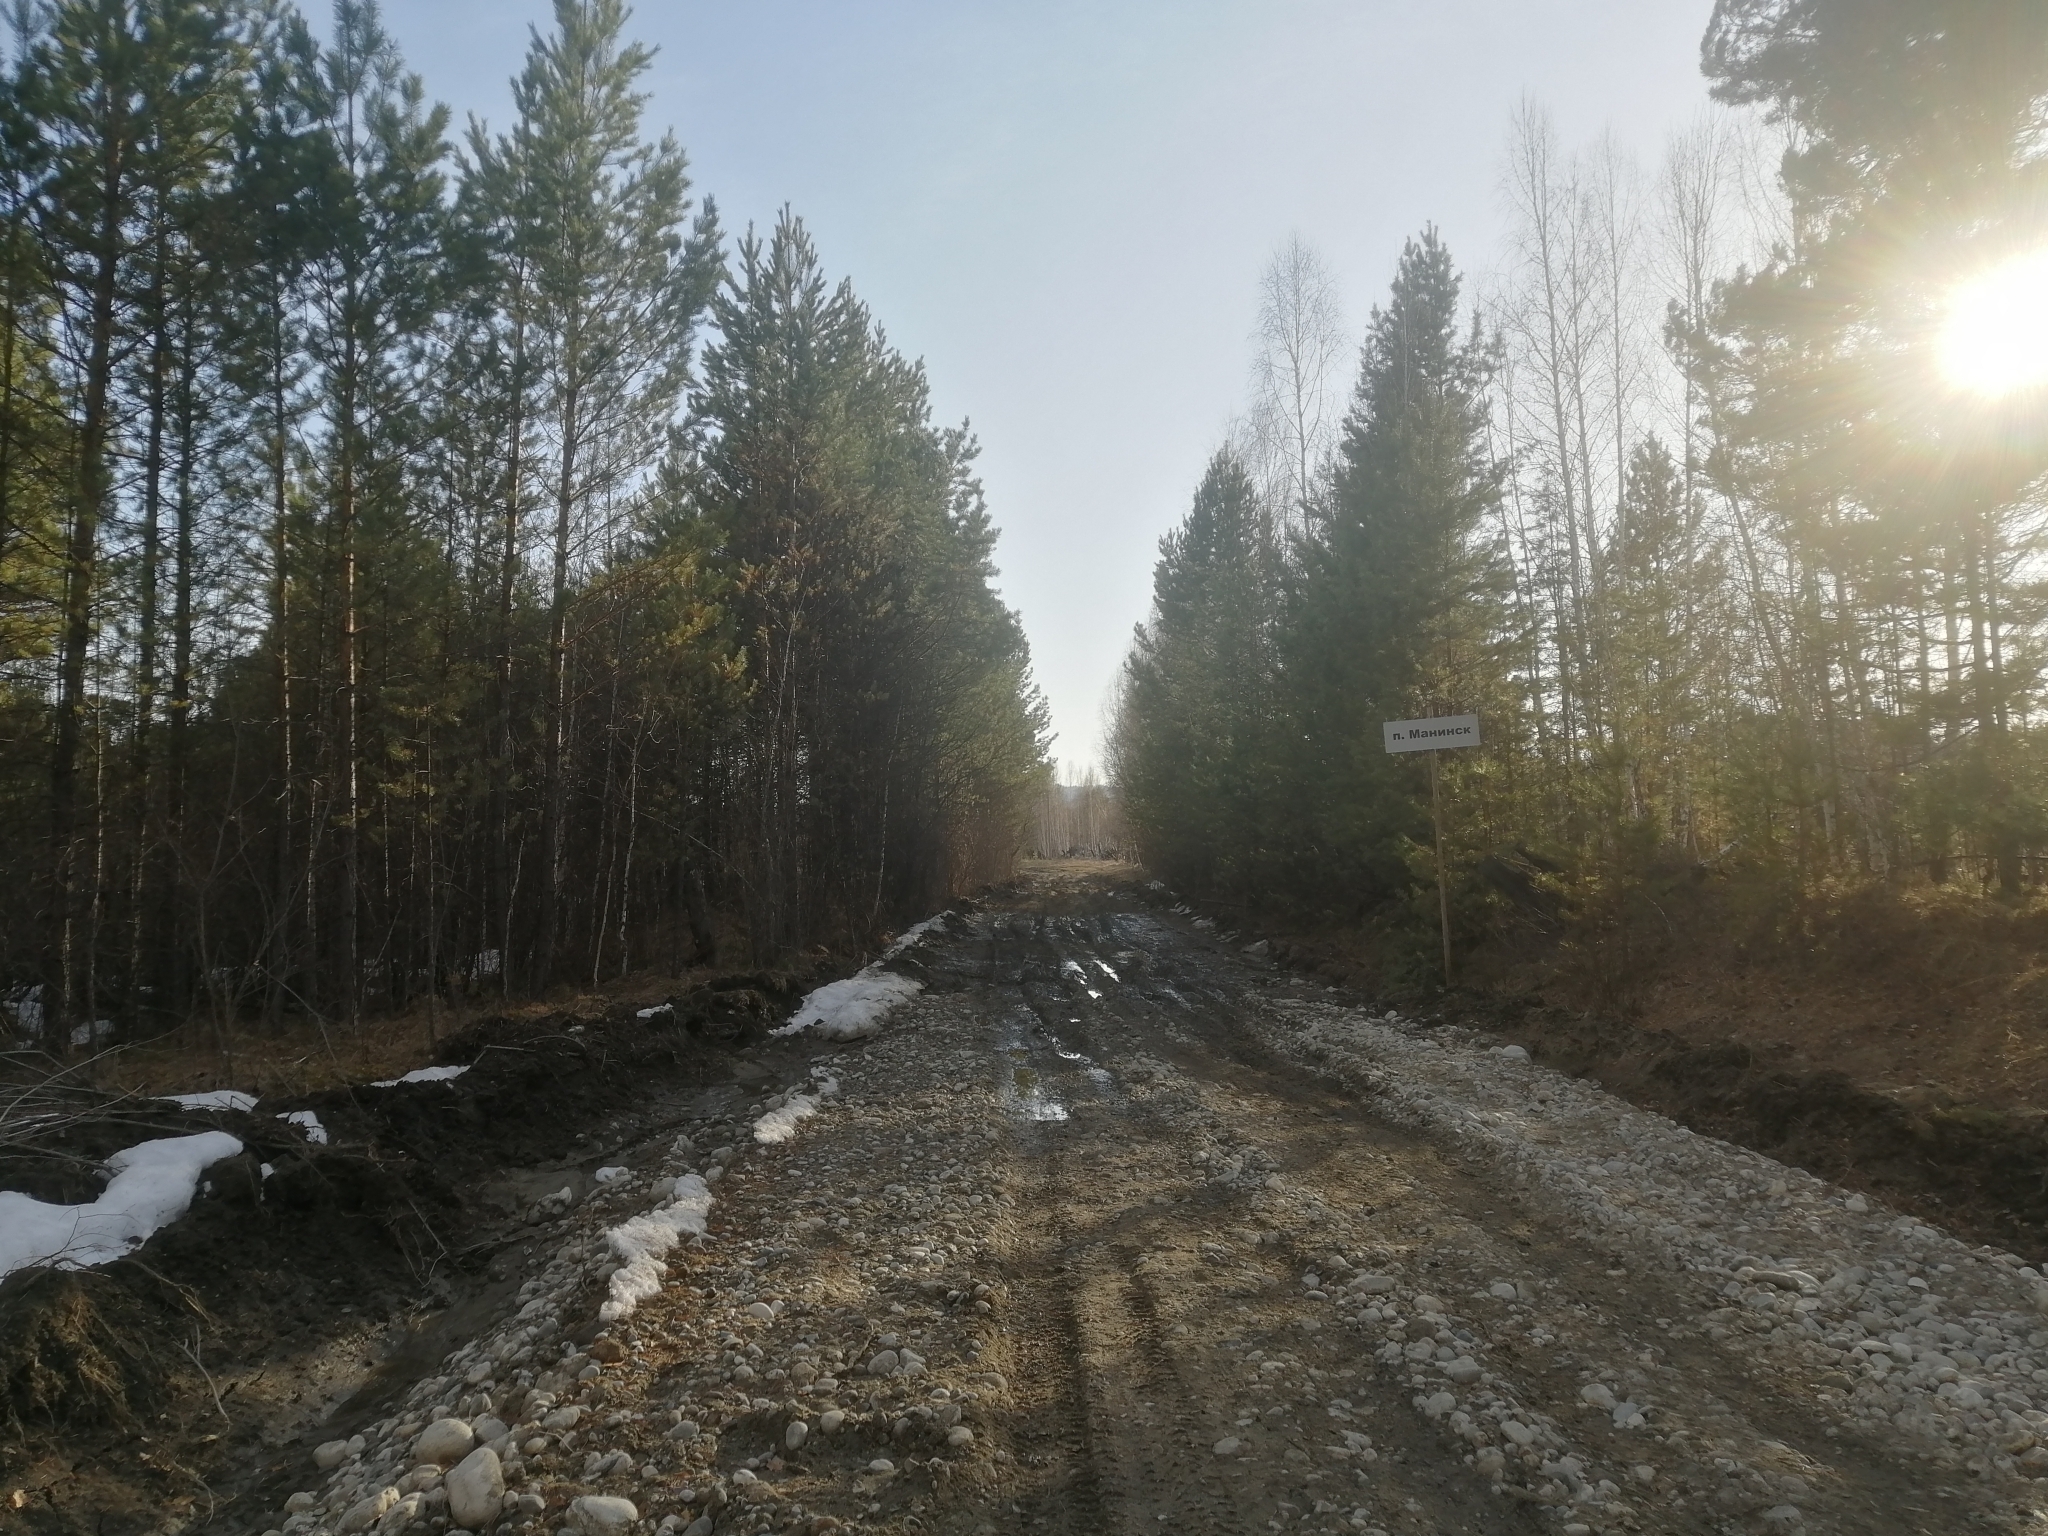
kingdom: Plantae
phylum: Tracheophyta
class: Pinopsida
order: Pinales
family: Pinaceae
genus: Pinus
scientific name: Pinus sylvestris
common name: Scots pine
